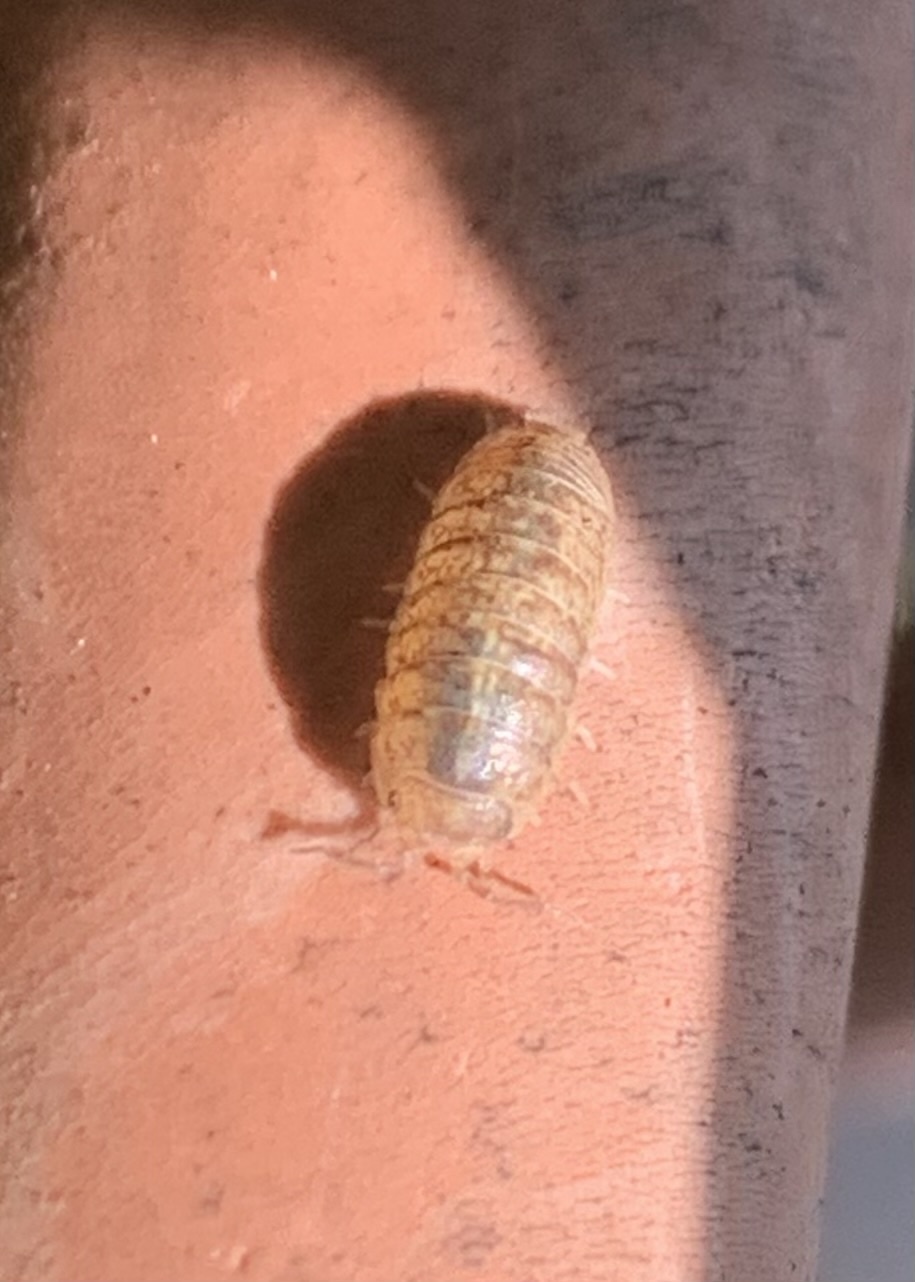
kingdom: Animalia
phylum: Arthropoda
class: Malacostraca
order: Isopoda
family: Armadillidiidae
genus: Armadillidium
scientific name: Armadillidium arcangelii
